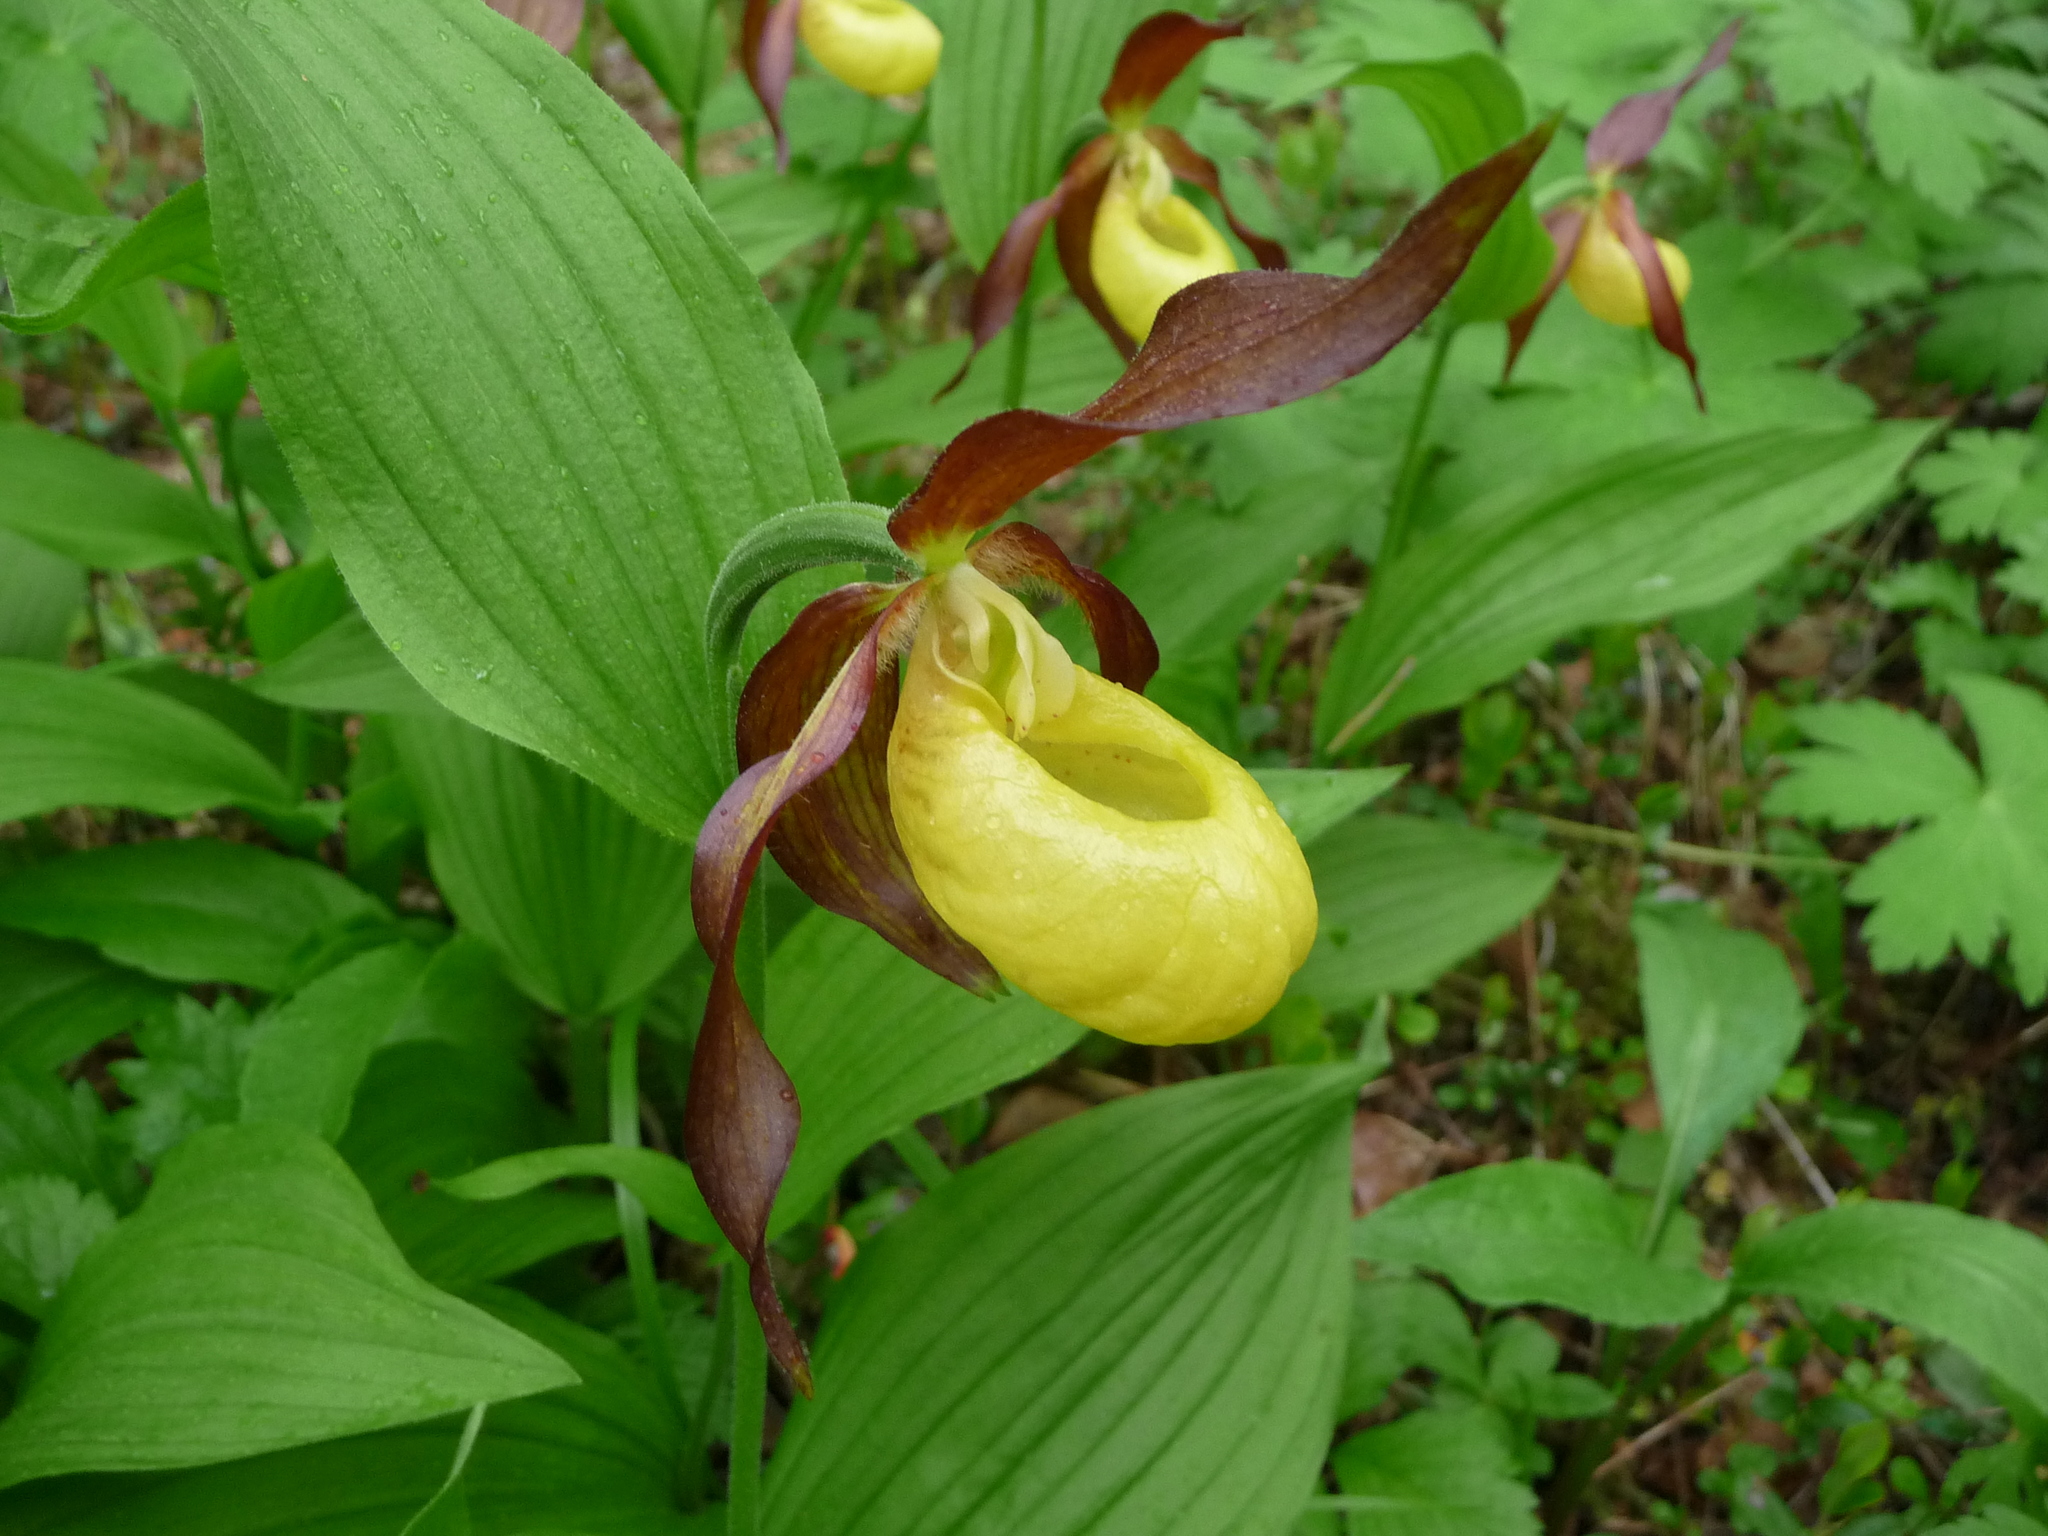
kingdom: Plantae
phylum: Tracheophyta
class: Liliopsida
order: Asparagales
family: Orchidaceae
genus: Cypripedium
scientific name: Cypripedium calceolus
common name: Lady's-slipper
